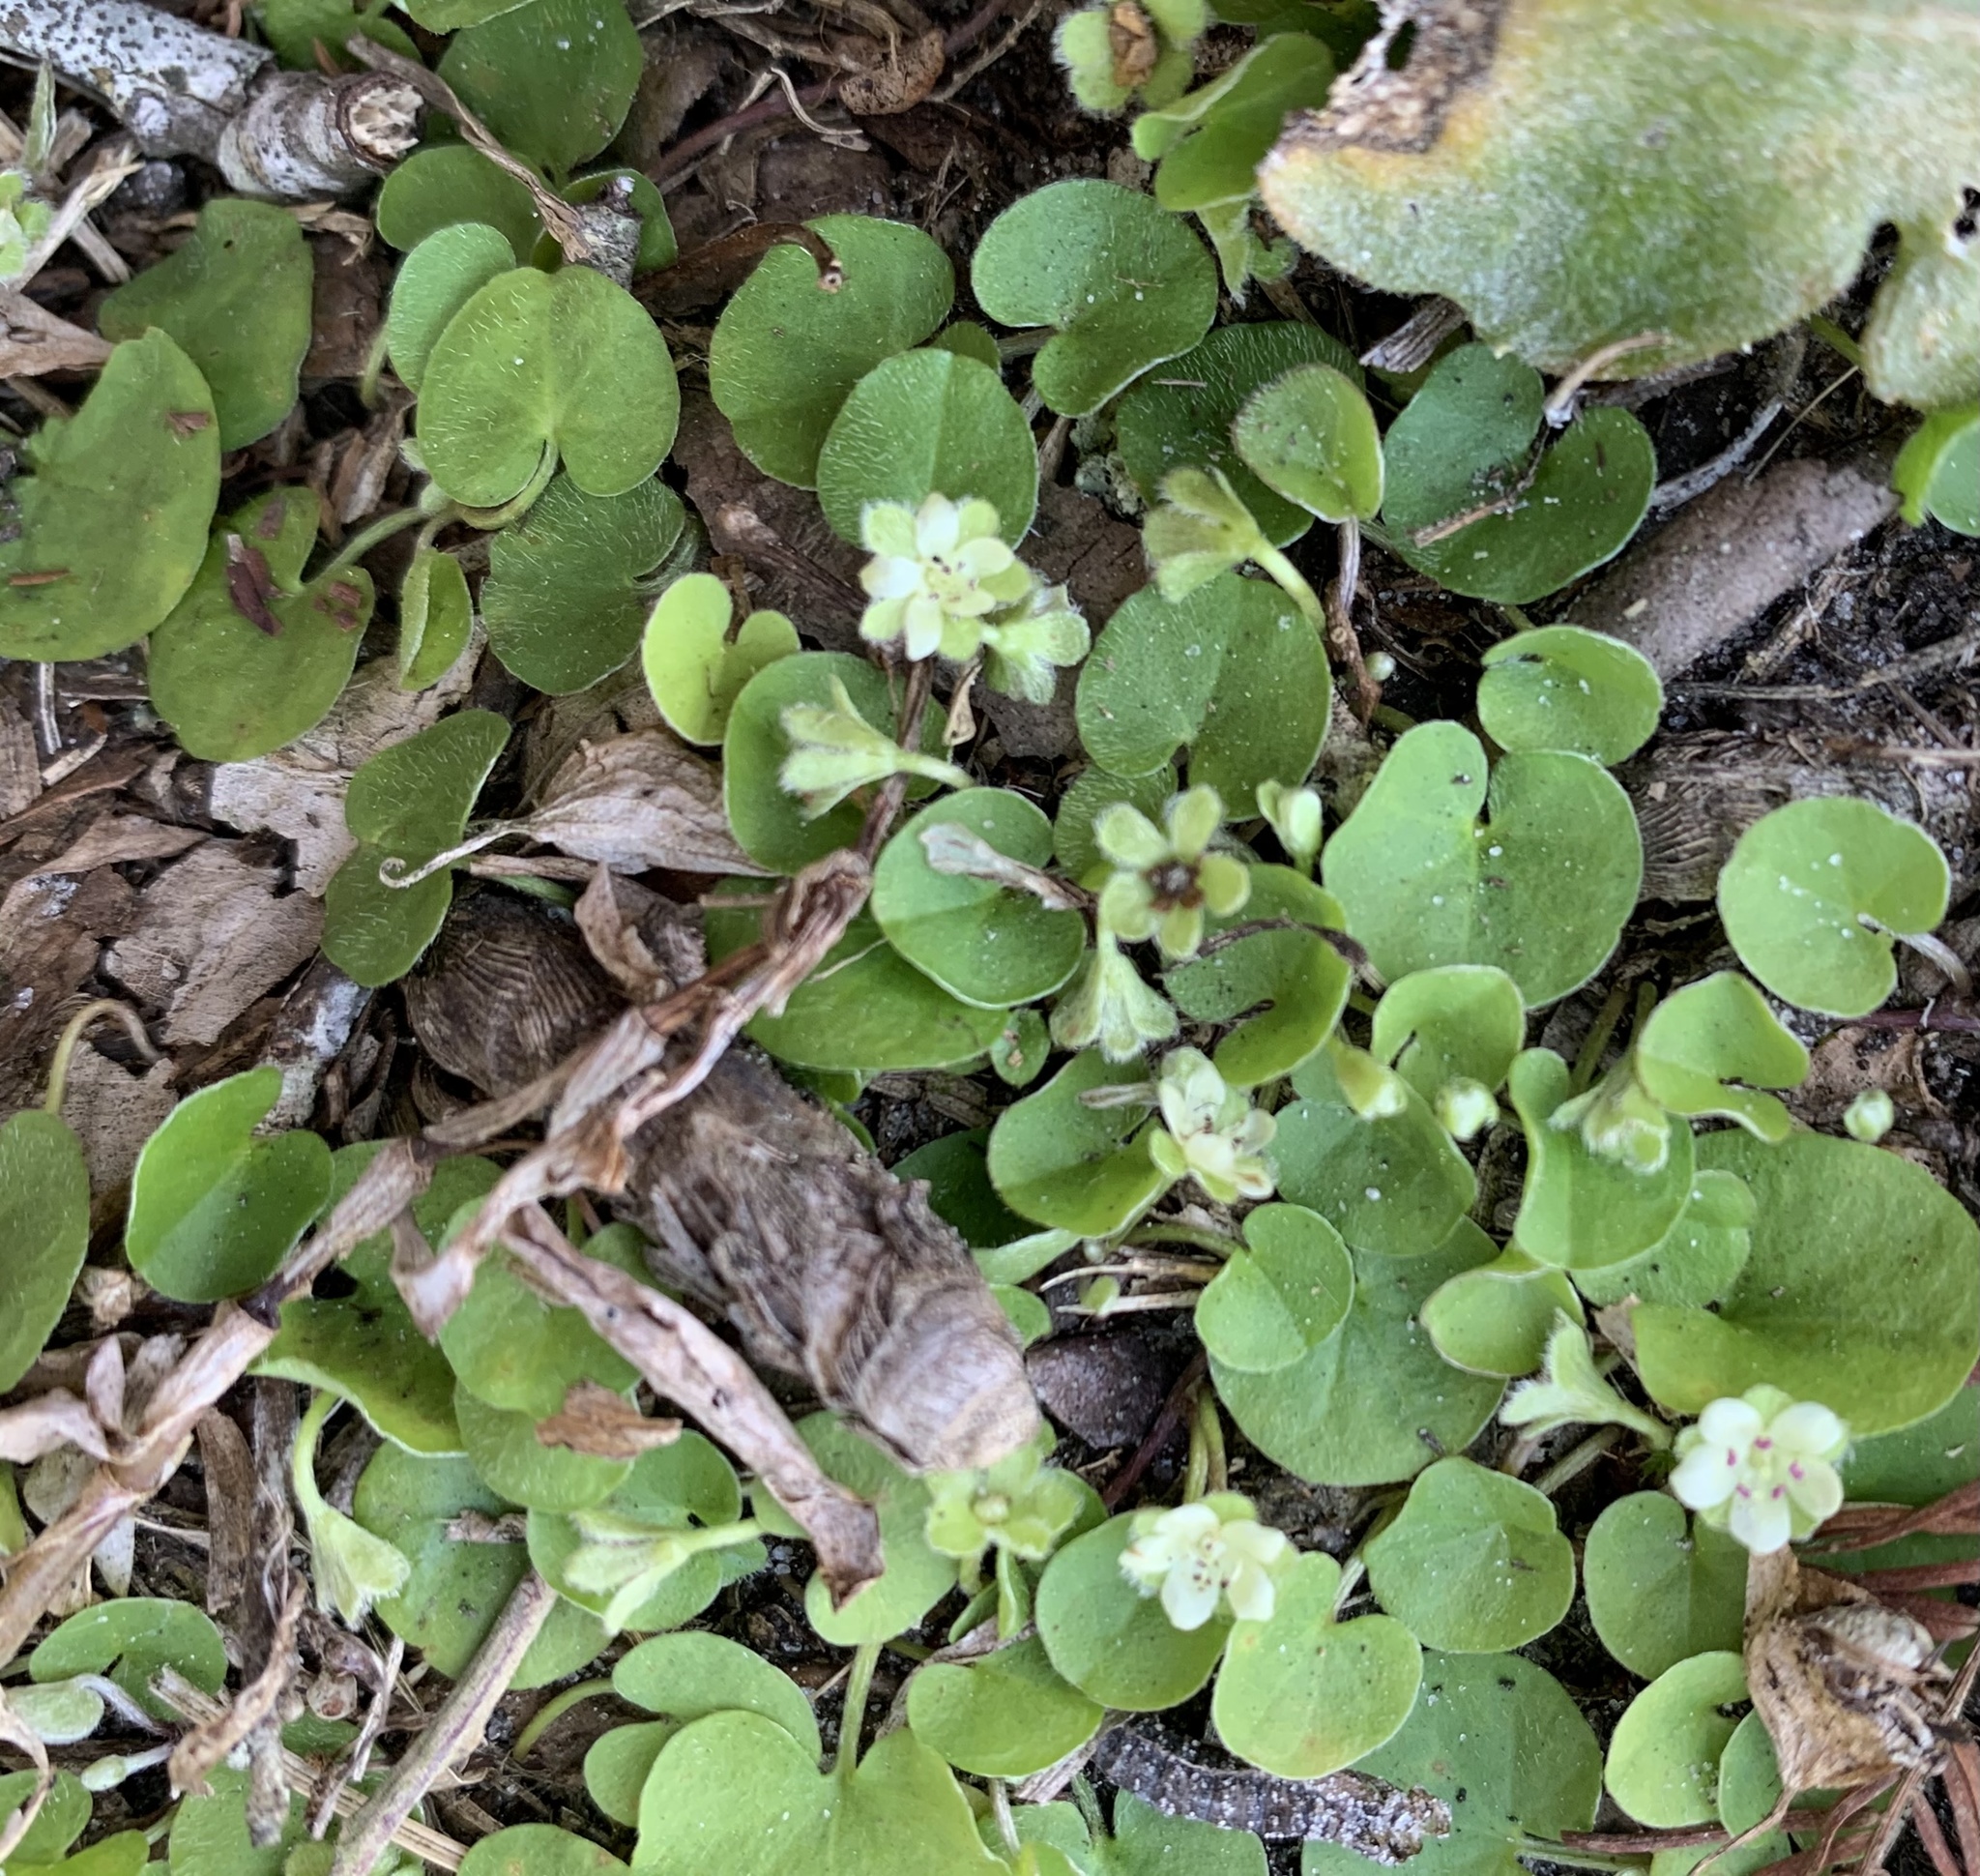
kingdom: Plantae
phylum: Tracheophyta
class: Magnoliopsida
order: Solanales
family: Convolvulaceae
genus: Dichondra
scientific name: Dichondra carolinensis
